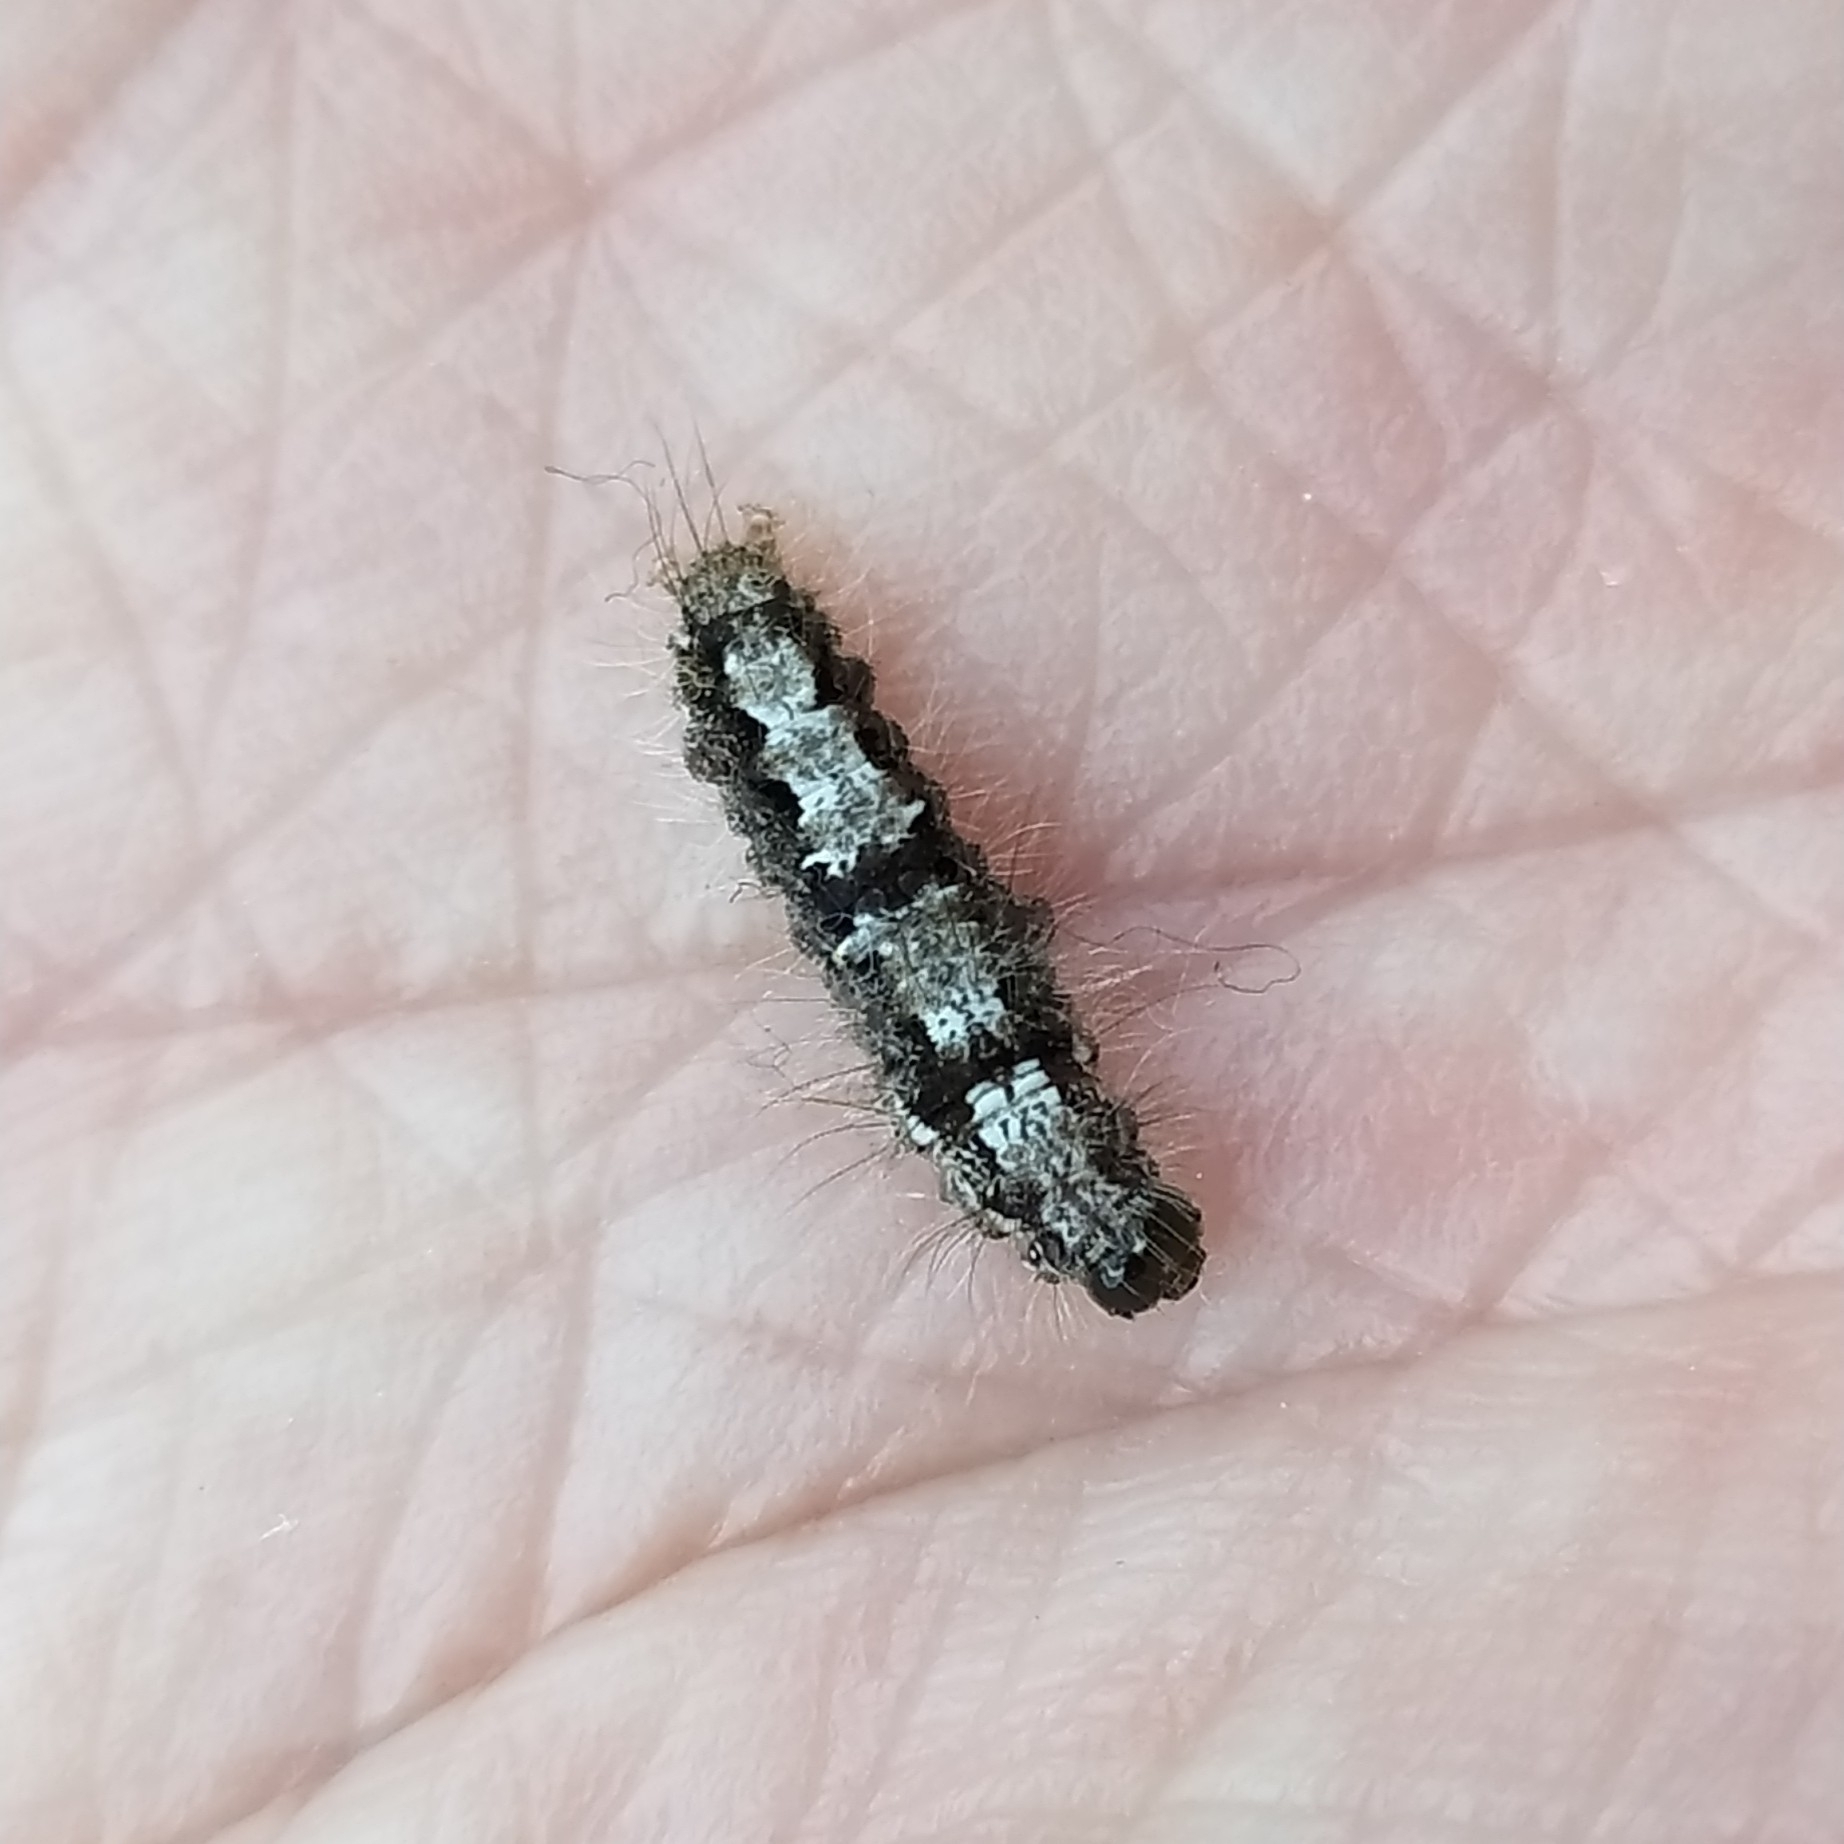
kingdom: Animalia
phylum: Arthropoda
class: Insecta
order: Lepidoptera
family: Erebidae
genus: Katha
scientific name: Katha depressa
